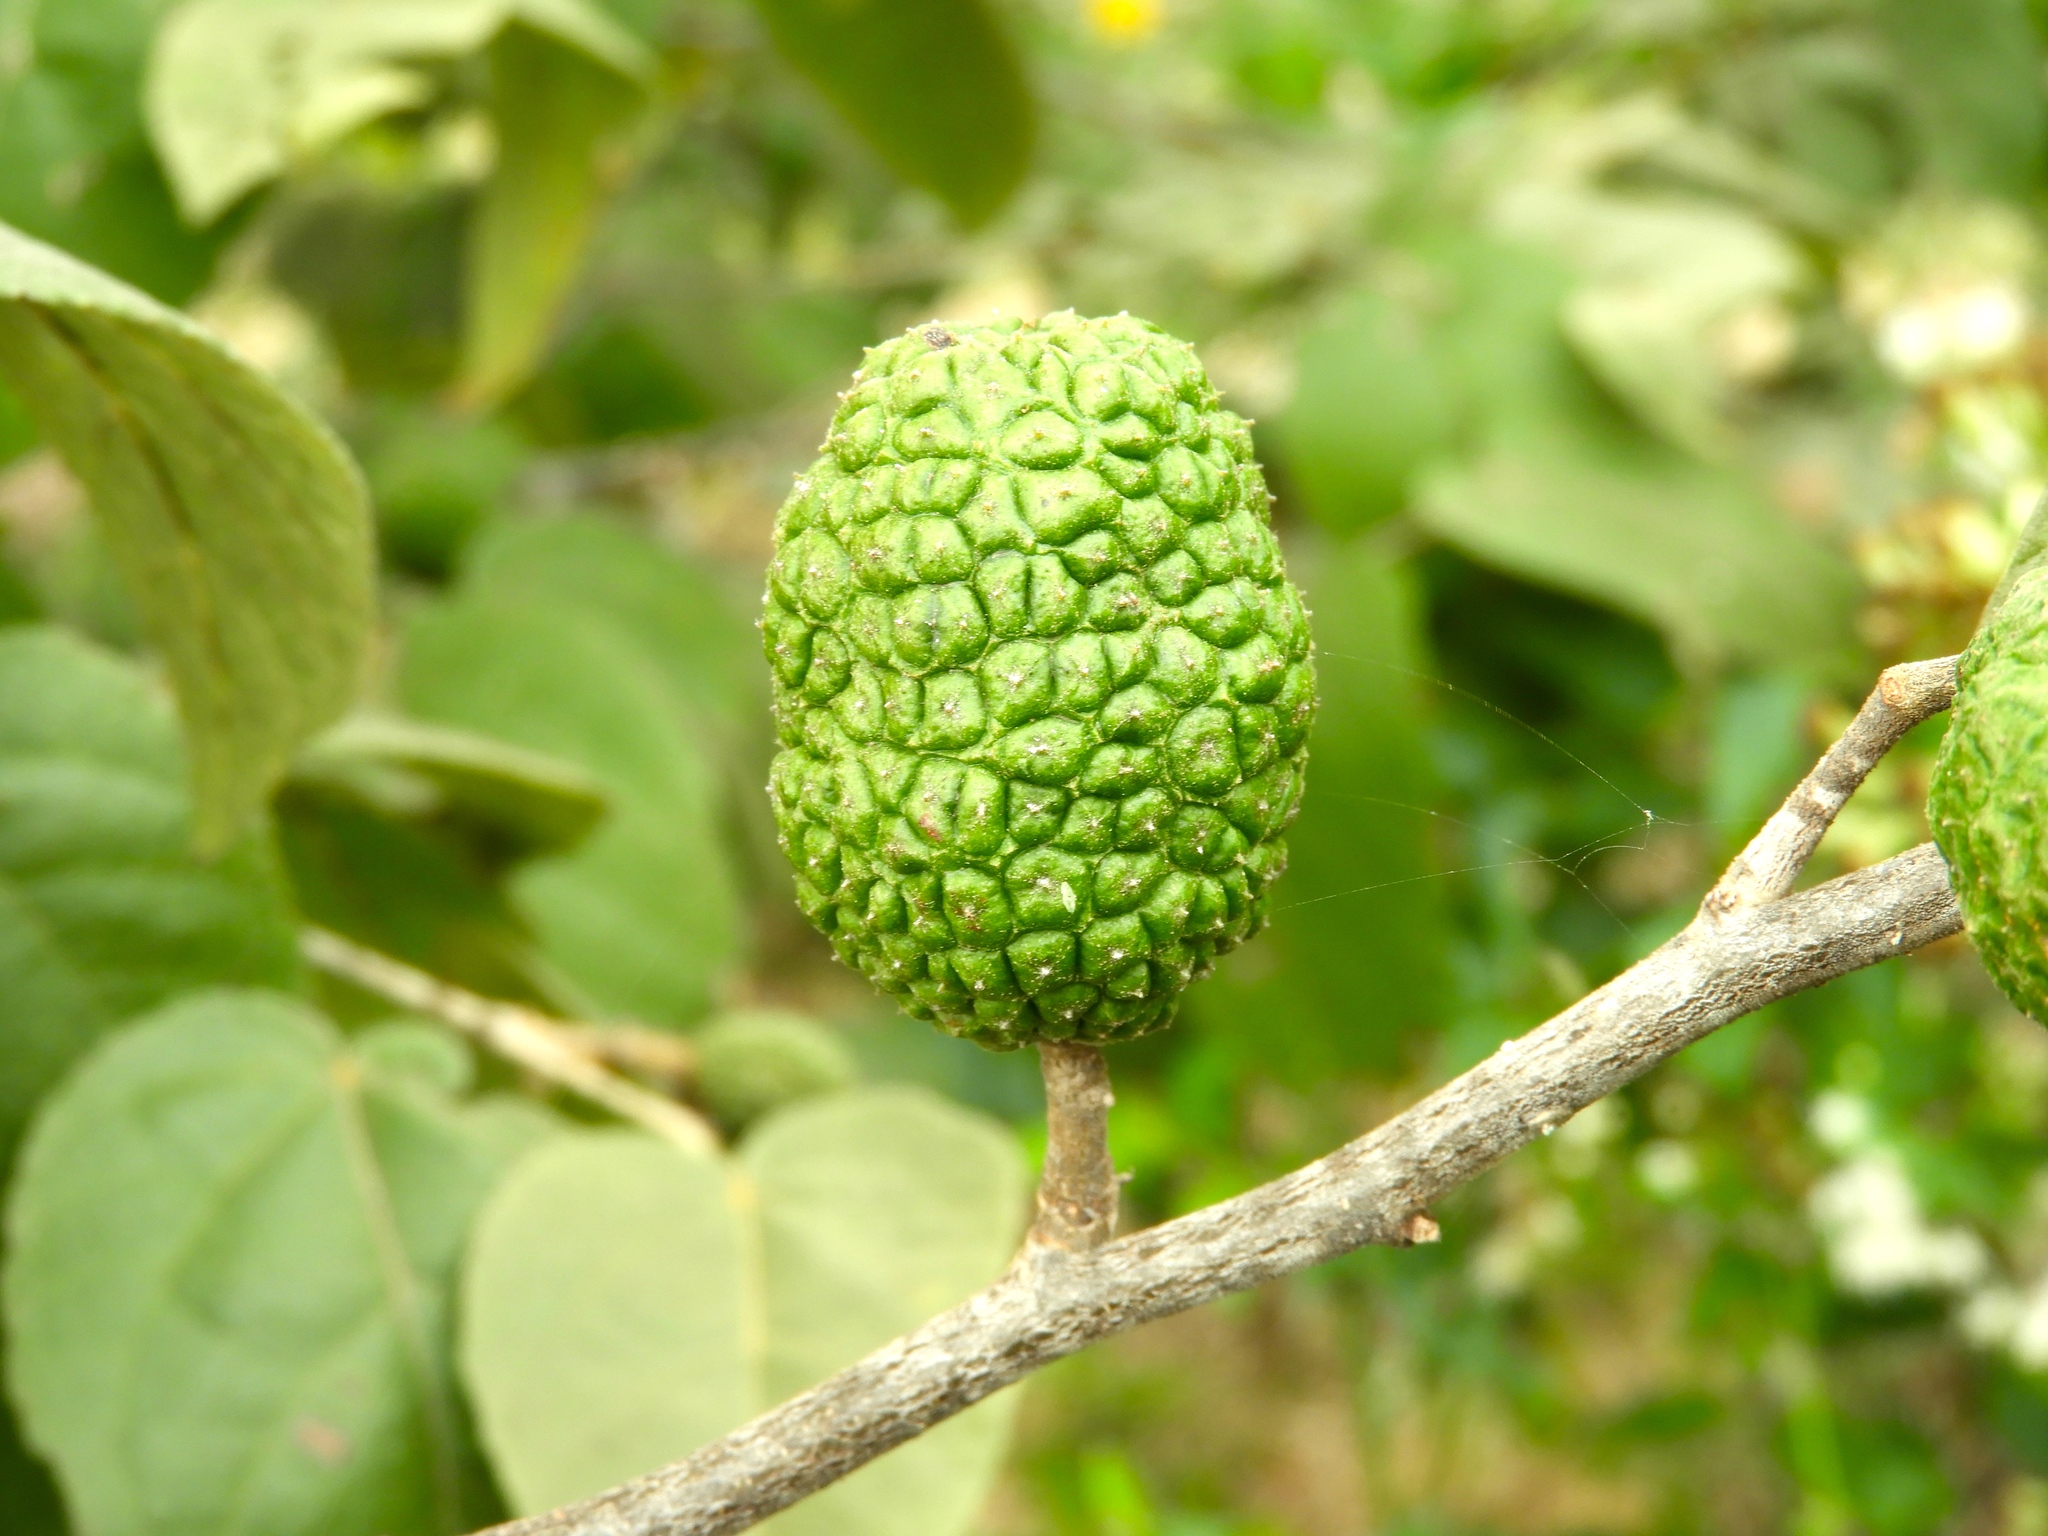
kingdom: Plantae
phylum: Tracheophyta
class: Magnoliopsida
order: Malvales
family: Malvaceae
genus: Guazuma
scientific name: Guazuma ulmifolia
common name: Bastard-cedar
